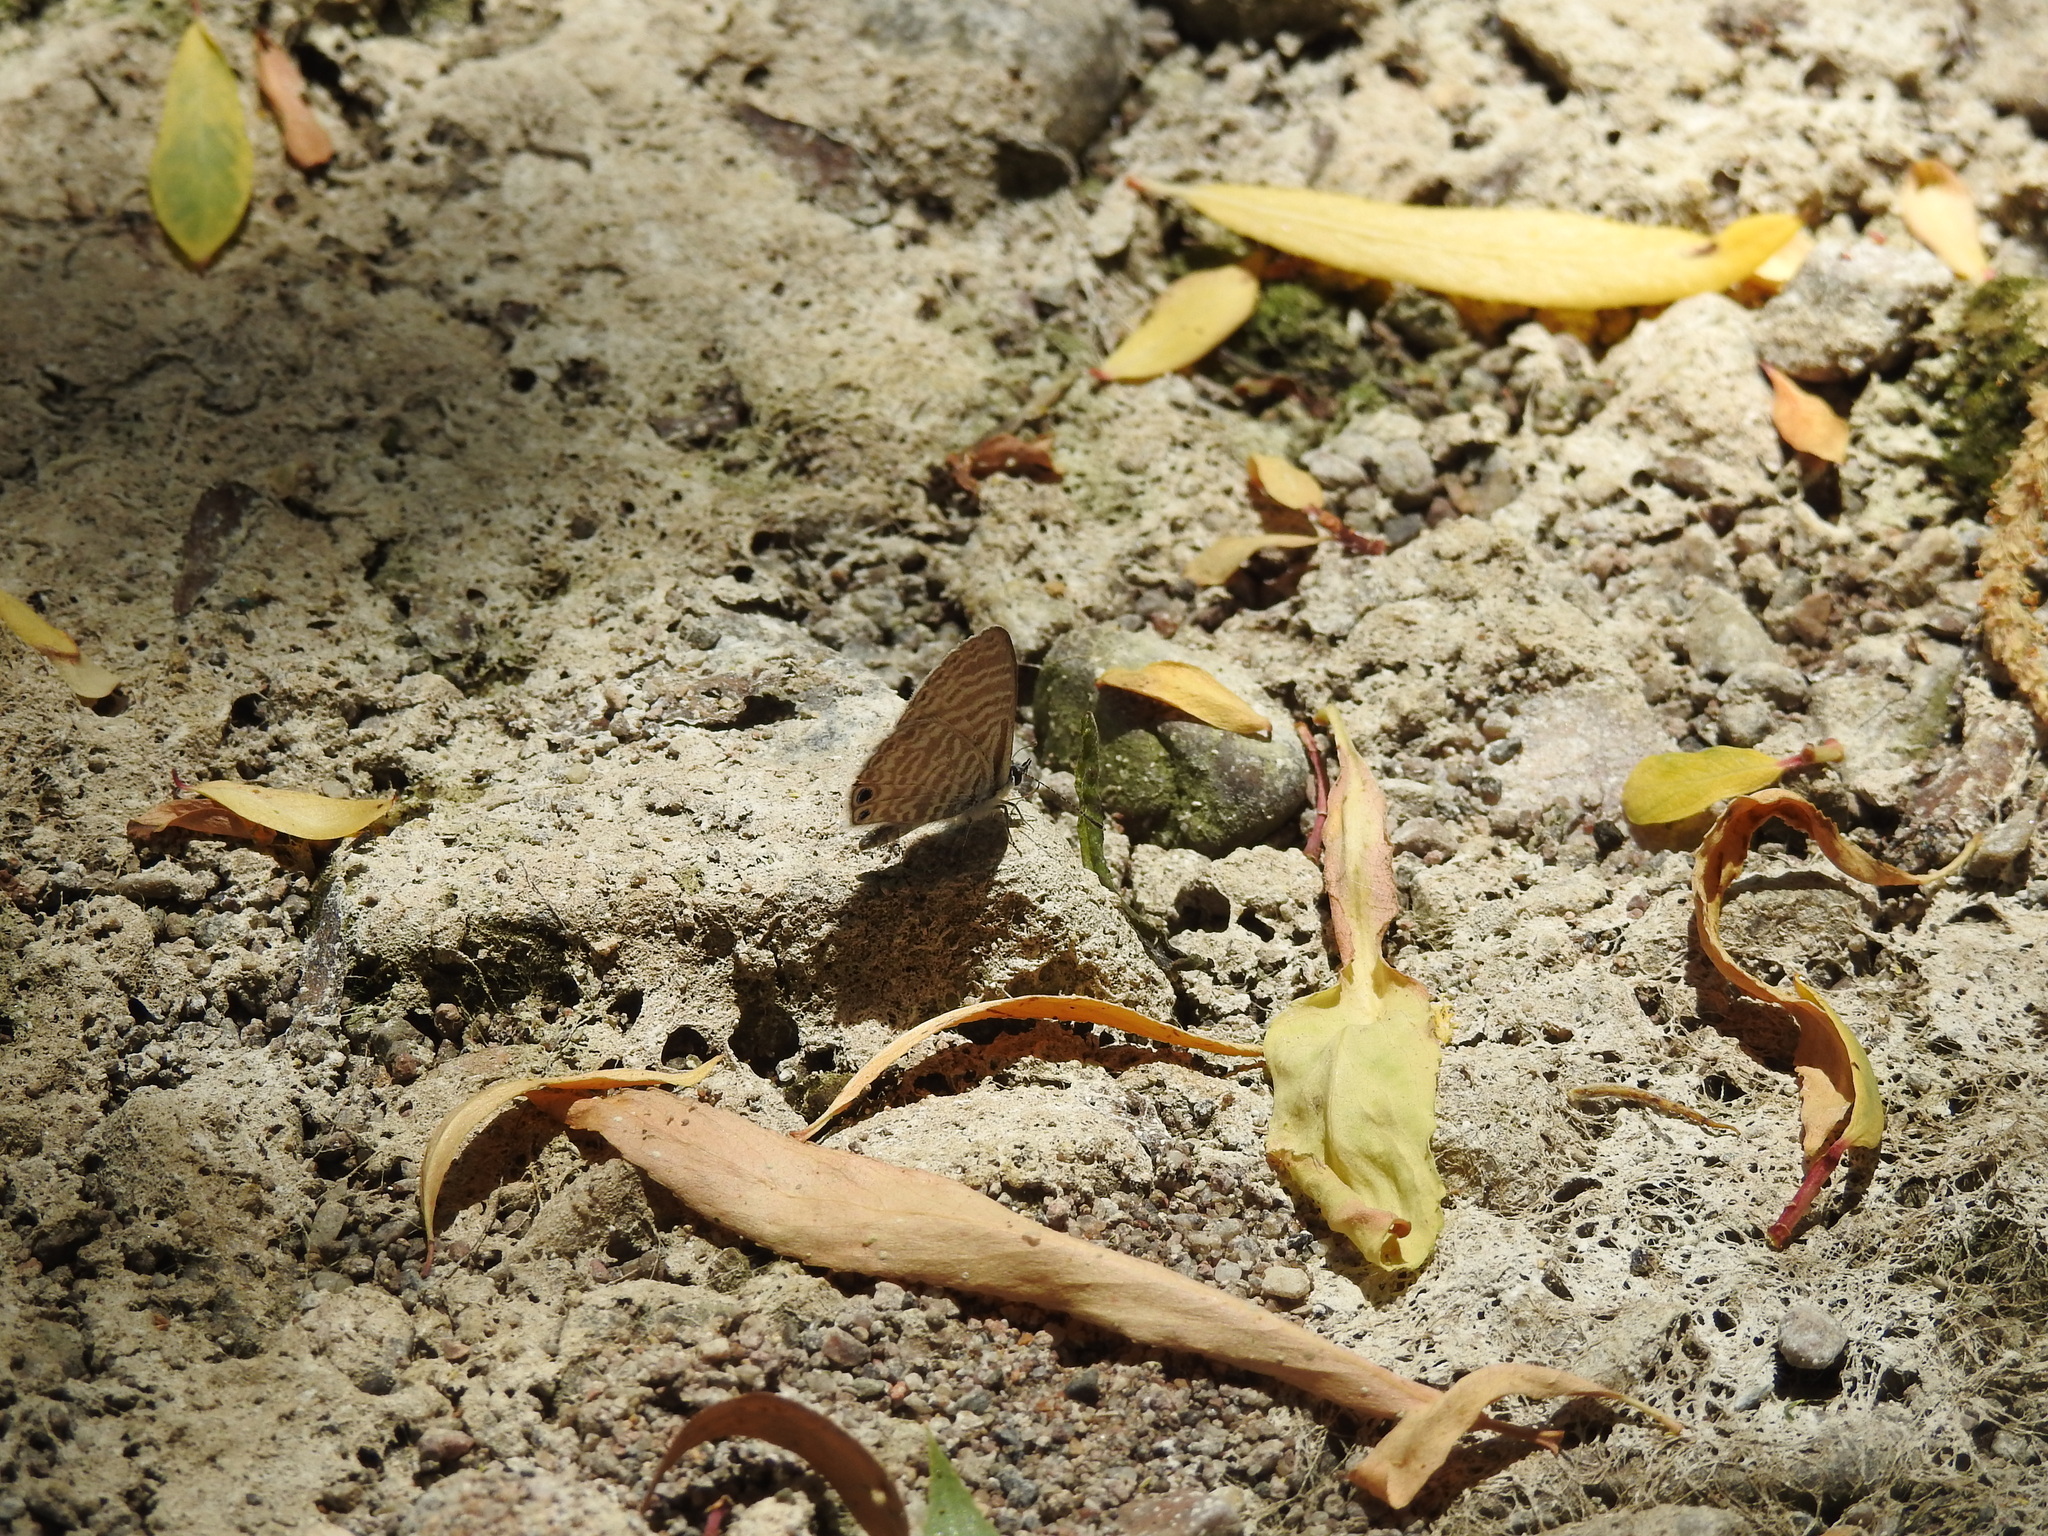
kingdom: Animalia
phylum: Arthropoda
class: Insecta
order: Lepidoptera
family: Lycaenidae
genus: Leptotes
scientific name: Leptotes marina
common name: Marine blue
